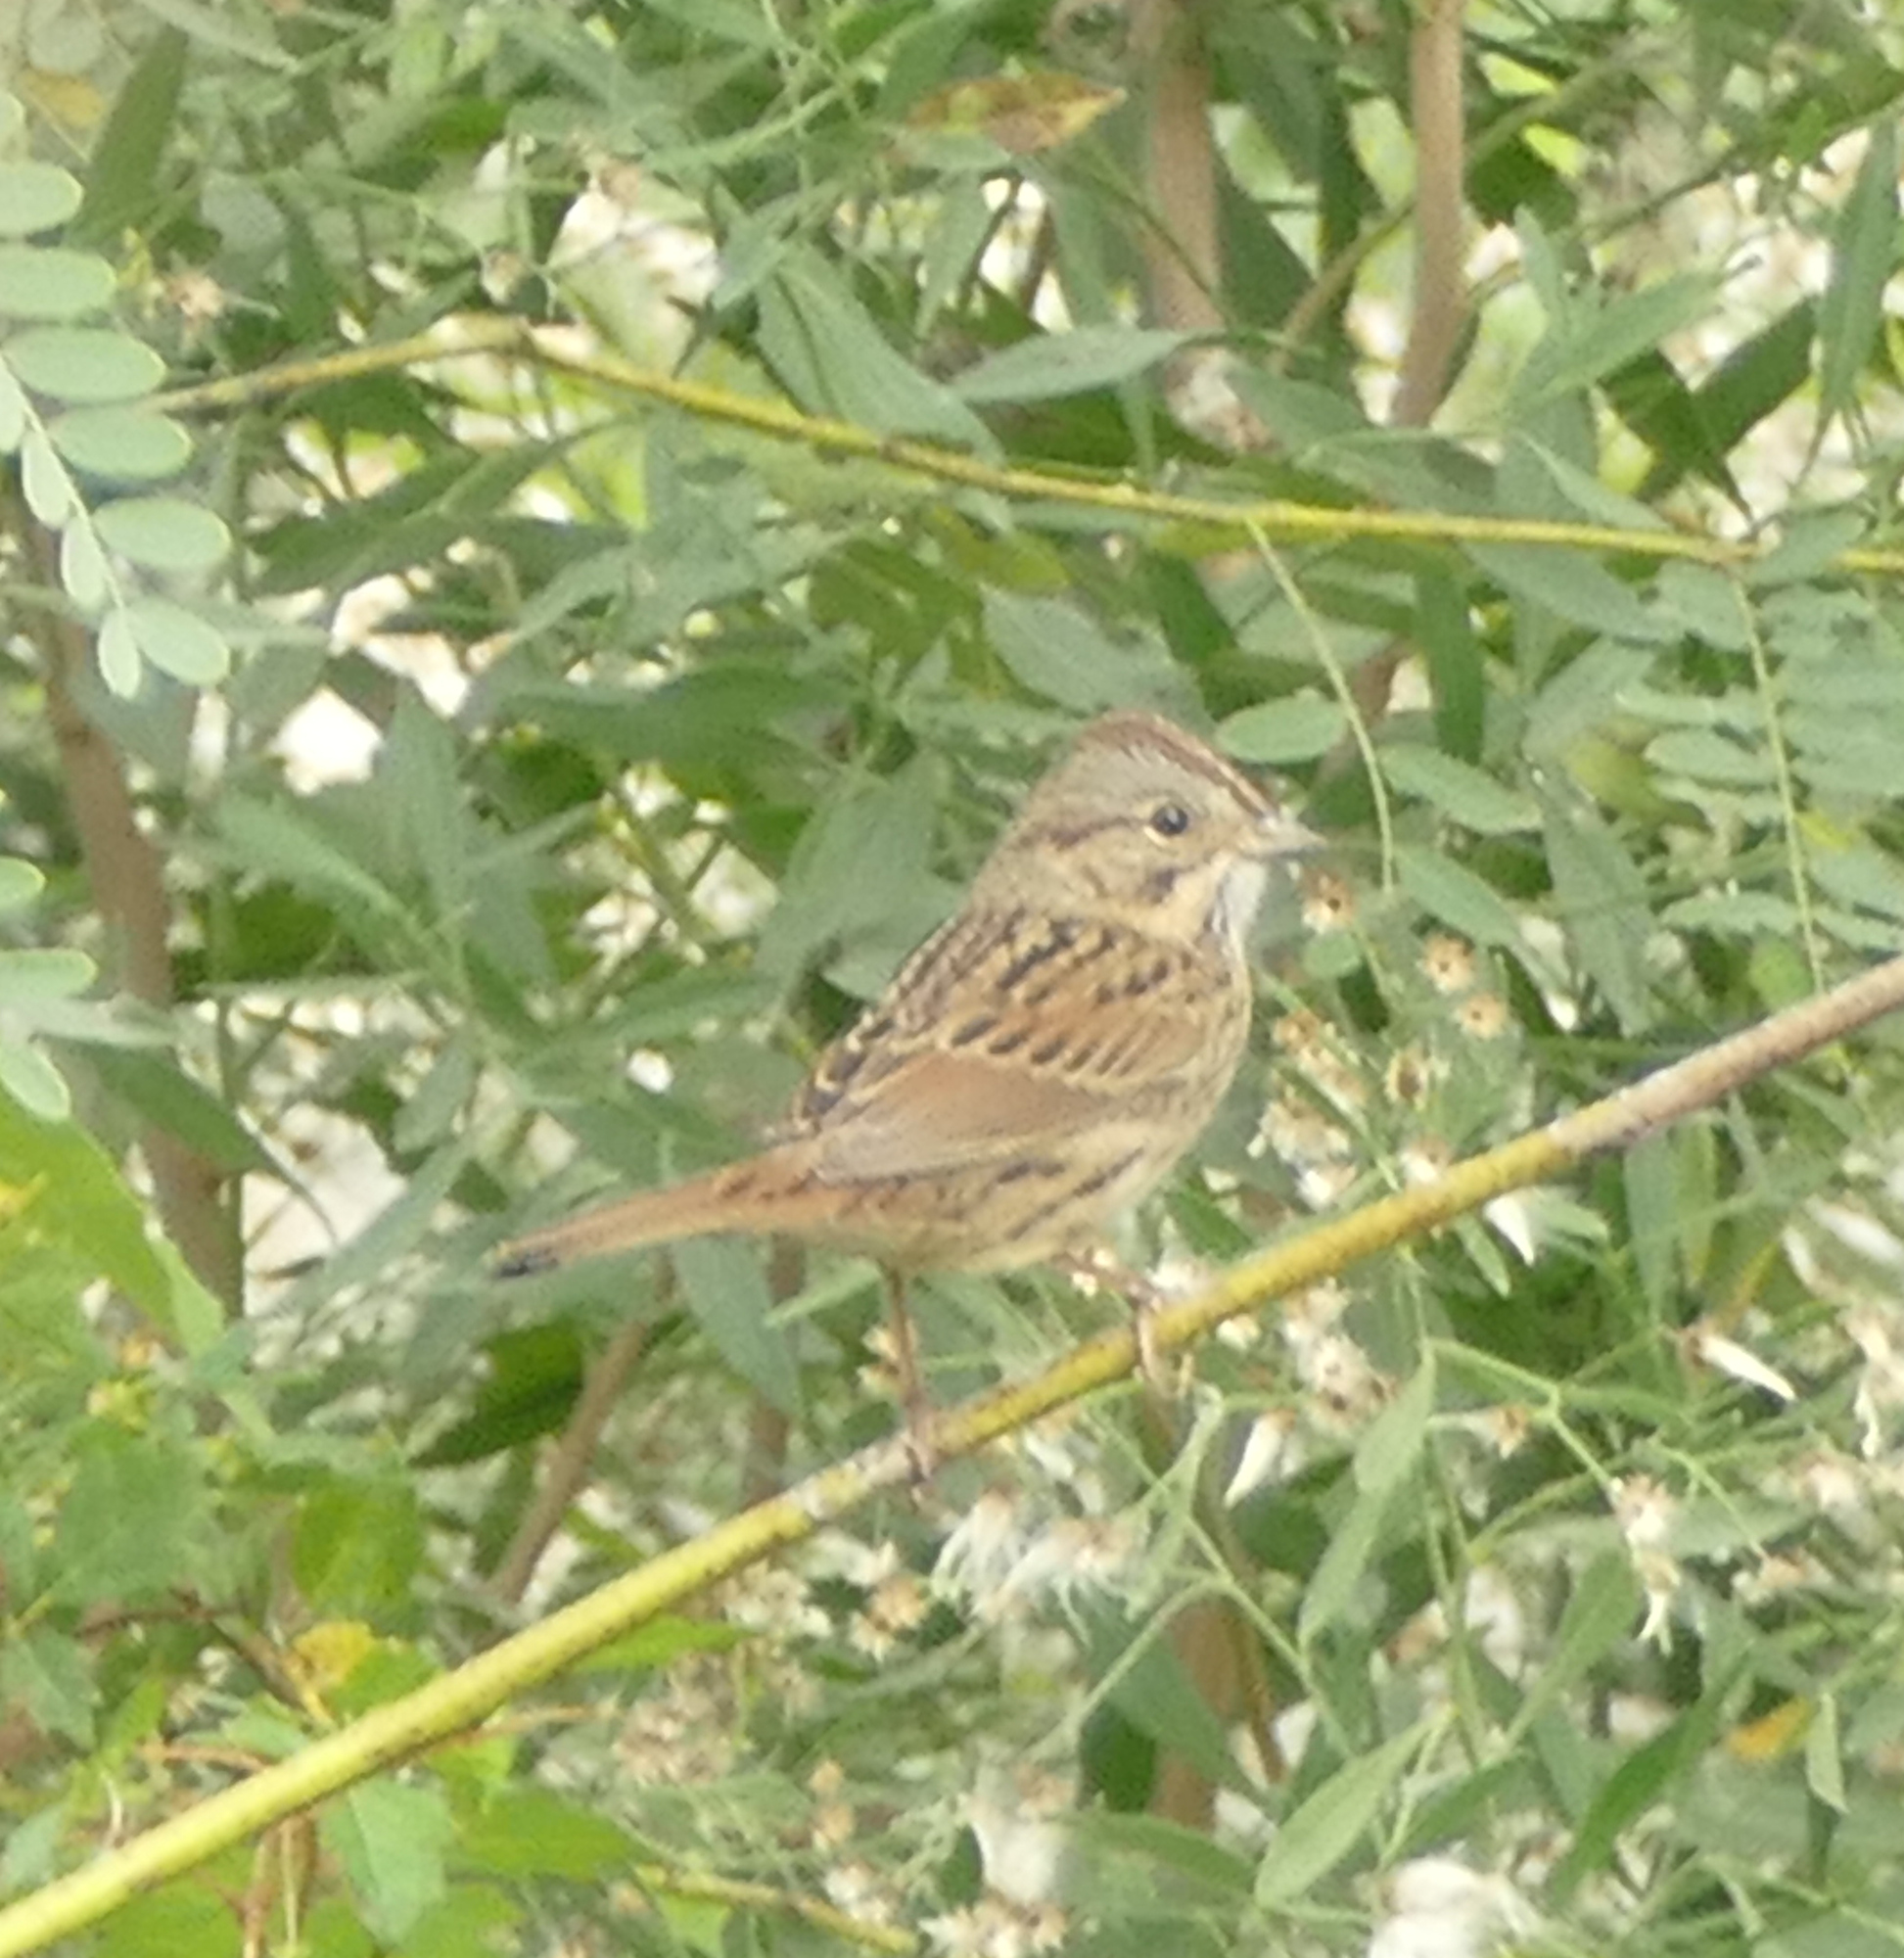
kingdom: Animalia
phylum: Chordata
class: Aves
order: Passeriformes
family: Passerellidae
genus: Melospiza
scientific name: Melospiza lincolnii
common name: Lincoln's sparrow
